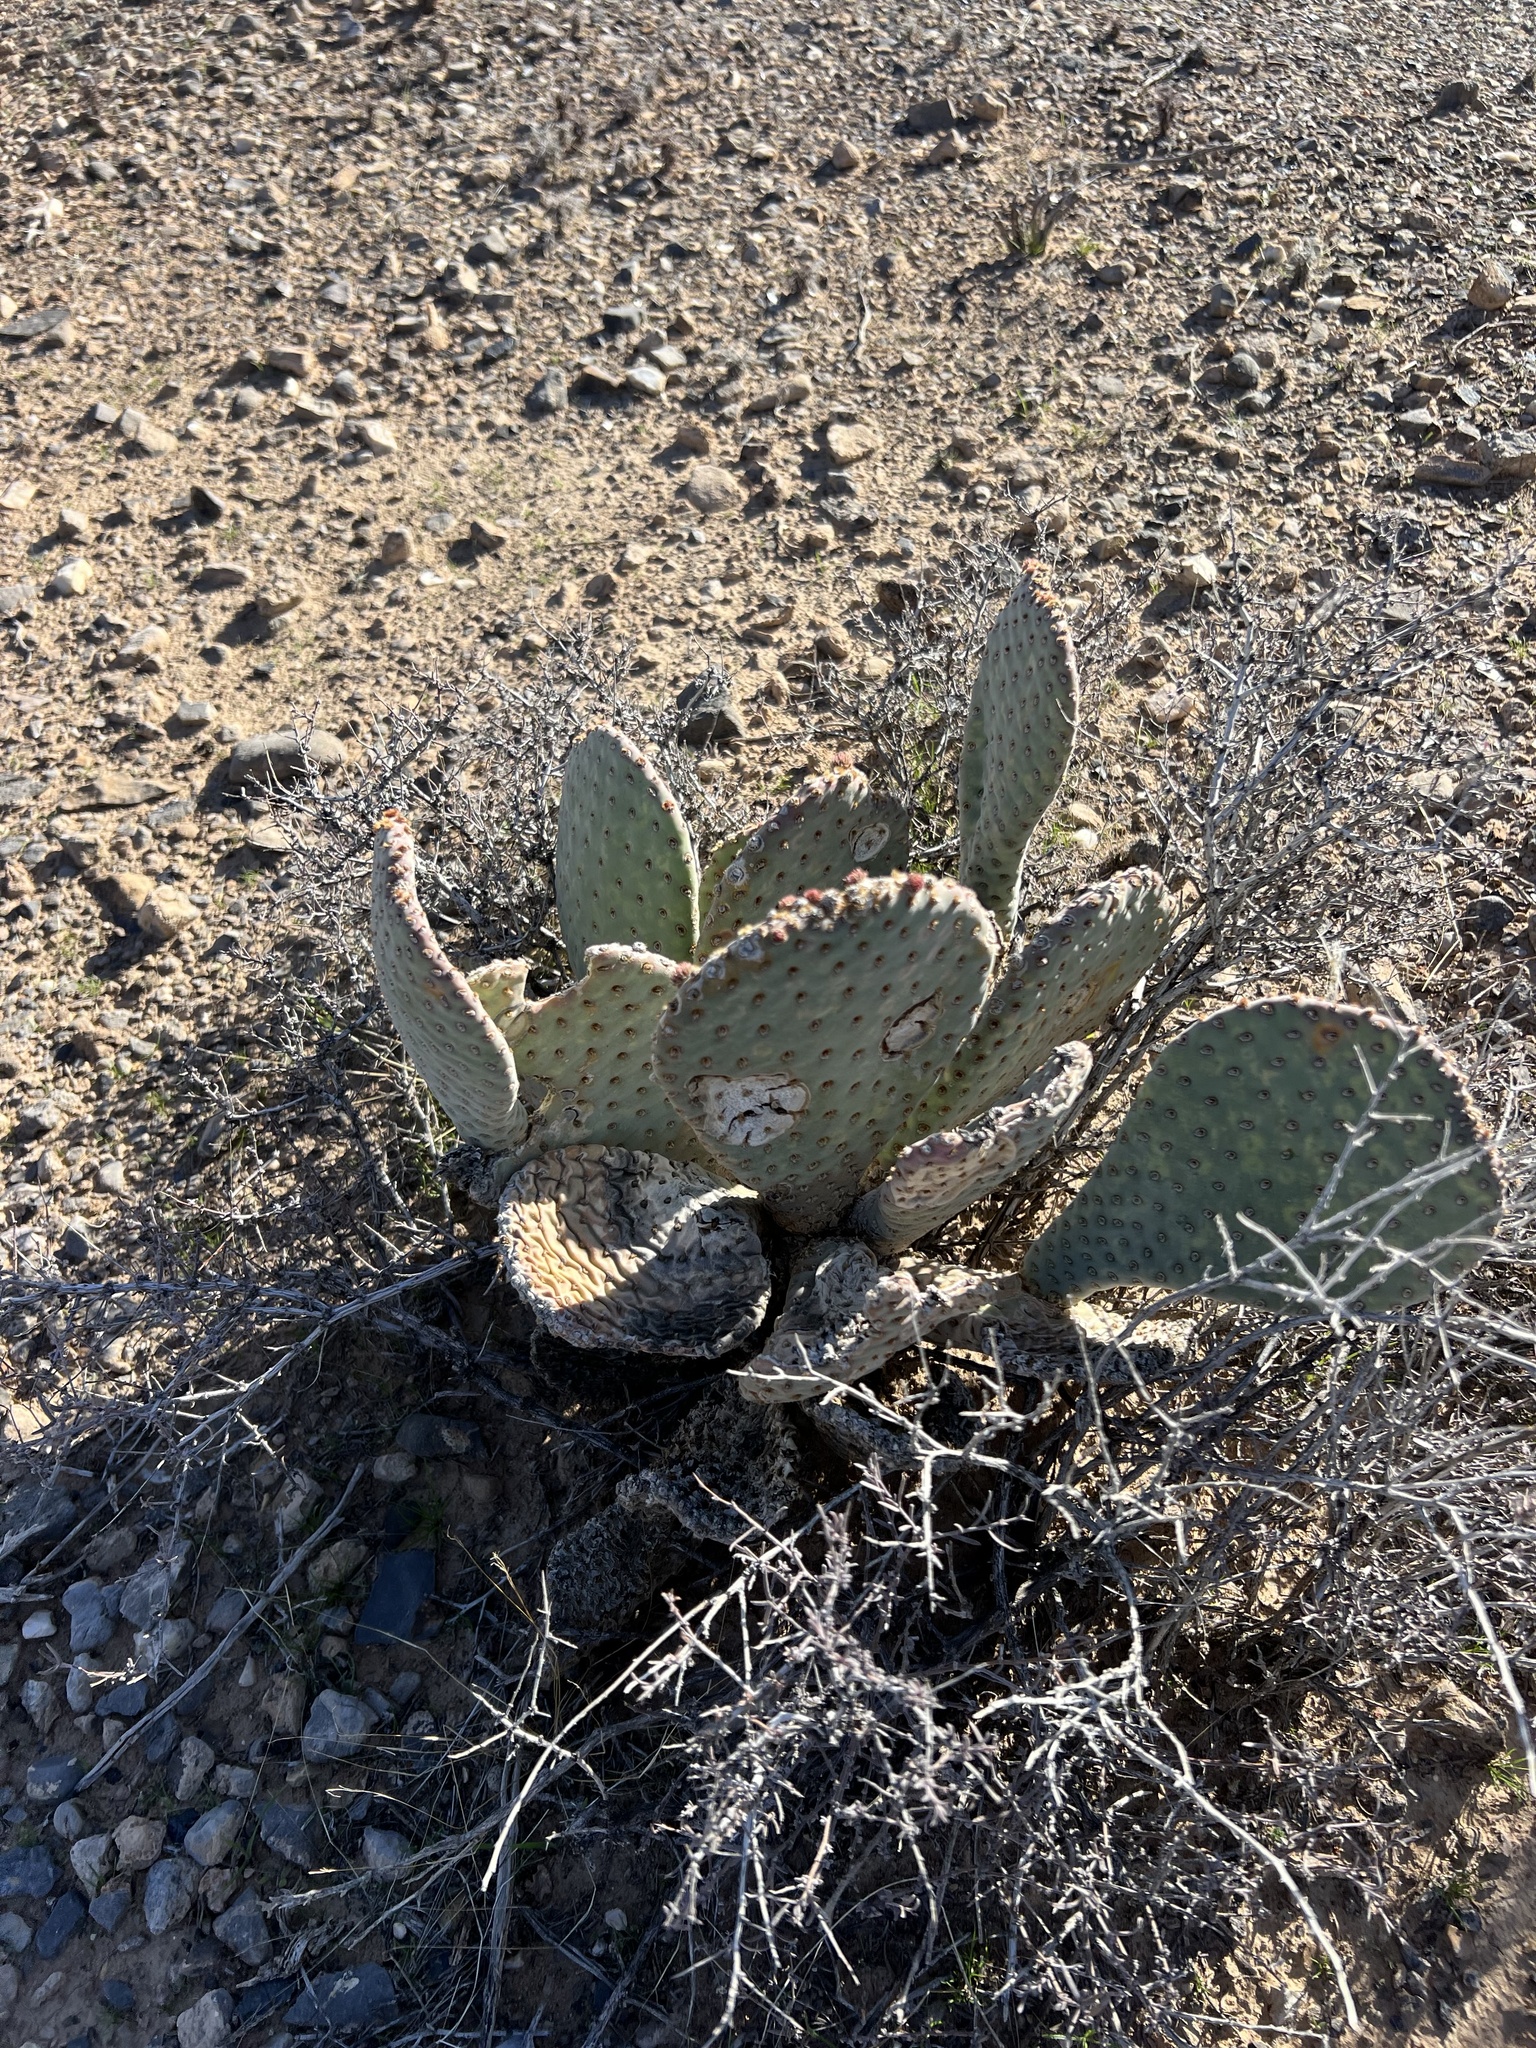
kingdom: Plantae
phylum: Tracheophyta
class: Magnoliopsida
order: Caryophyllales
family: Cactaceae
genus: Opuntia
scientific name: Opuntia basilaris
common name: Beavertail prickly-pear
